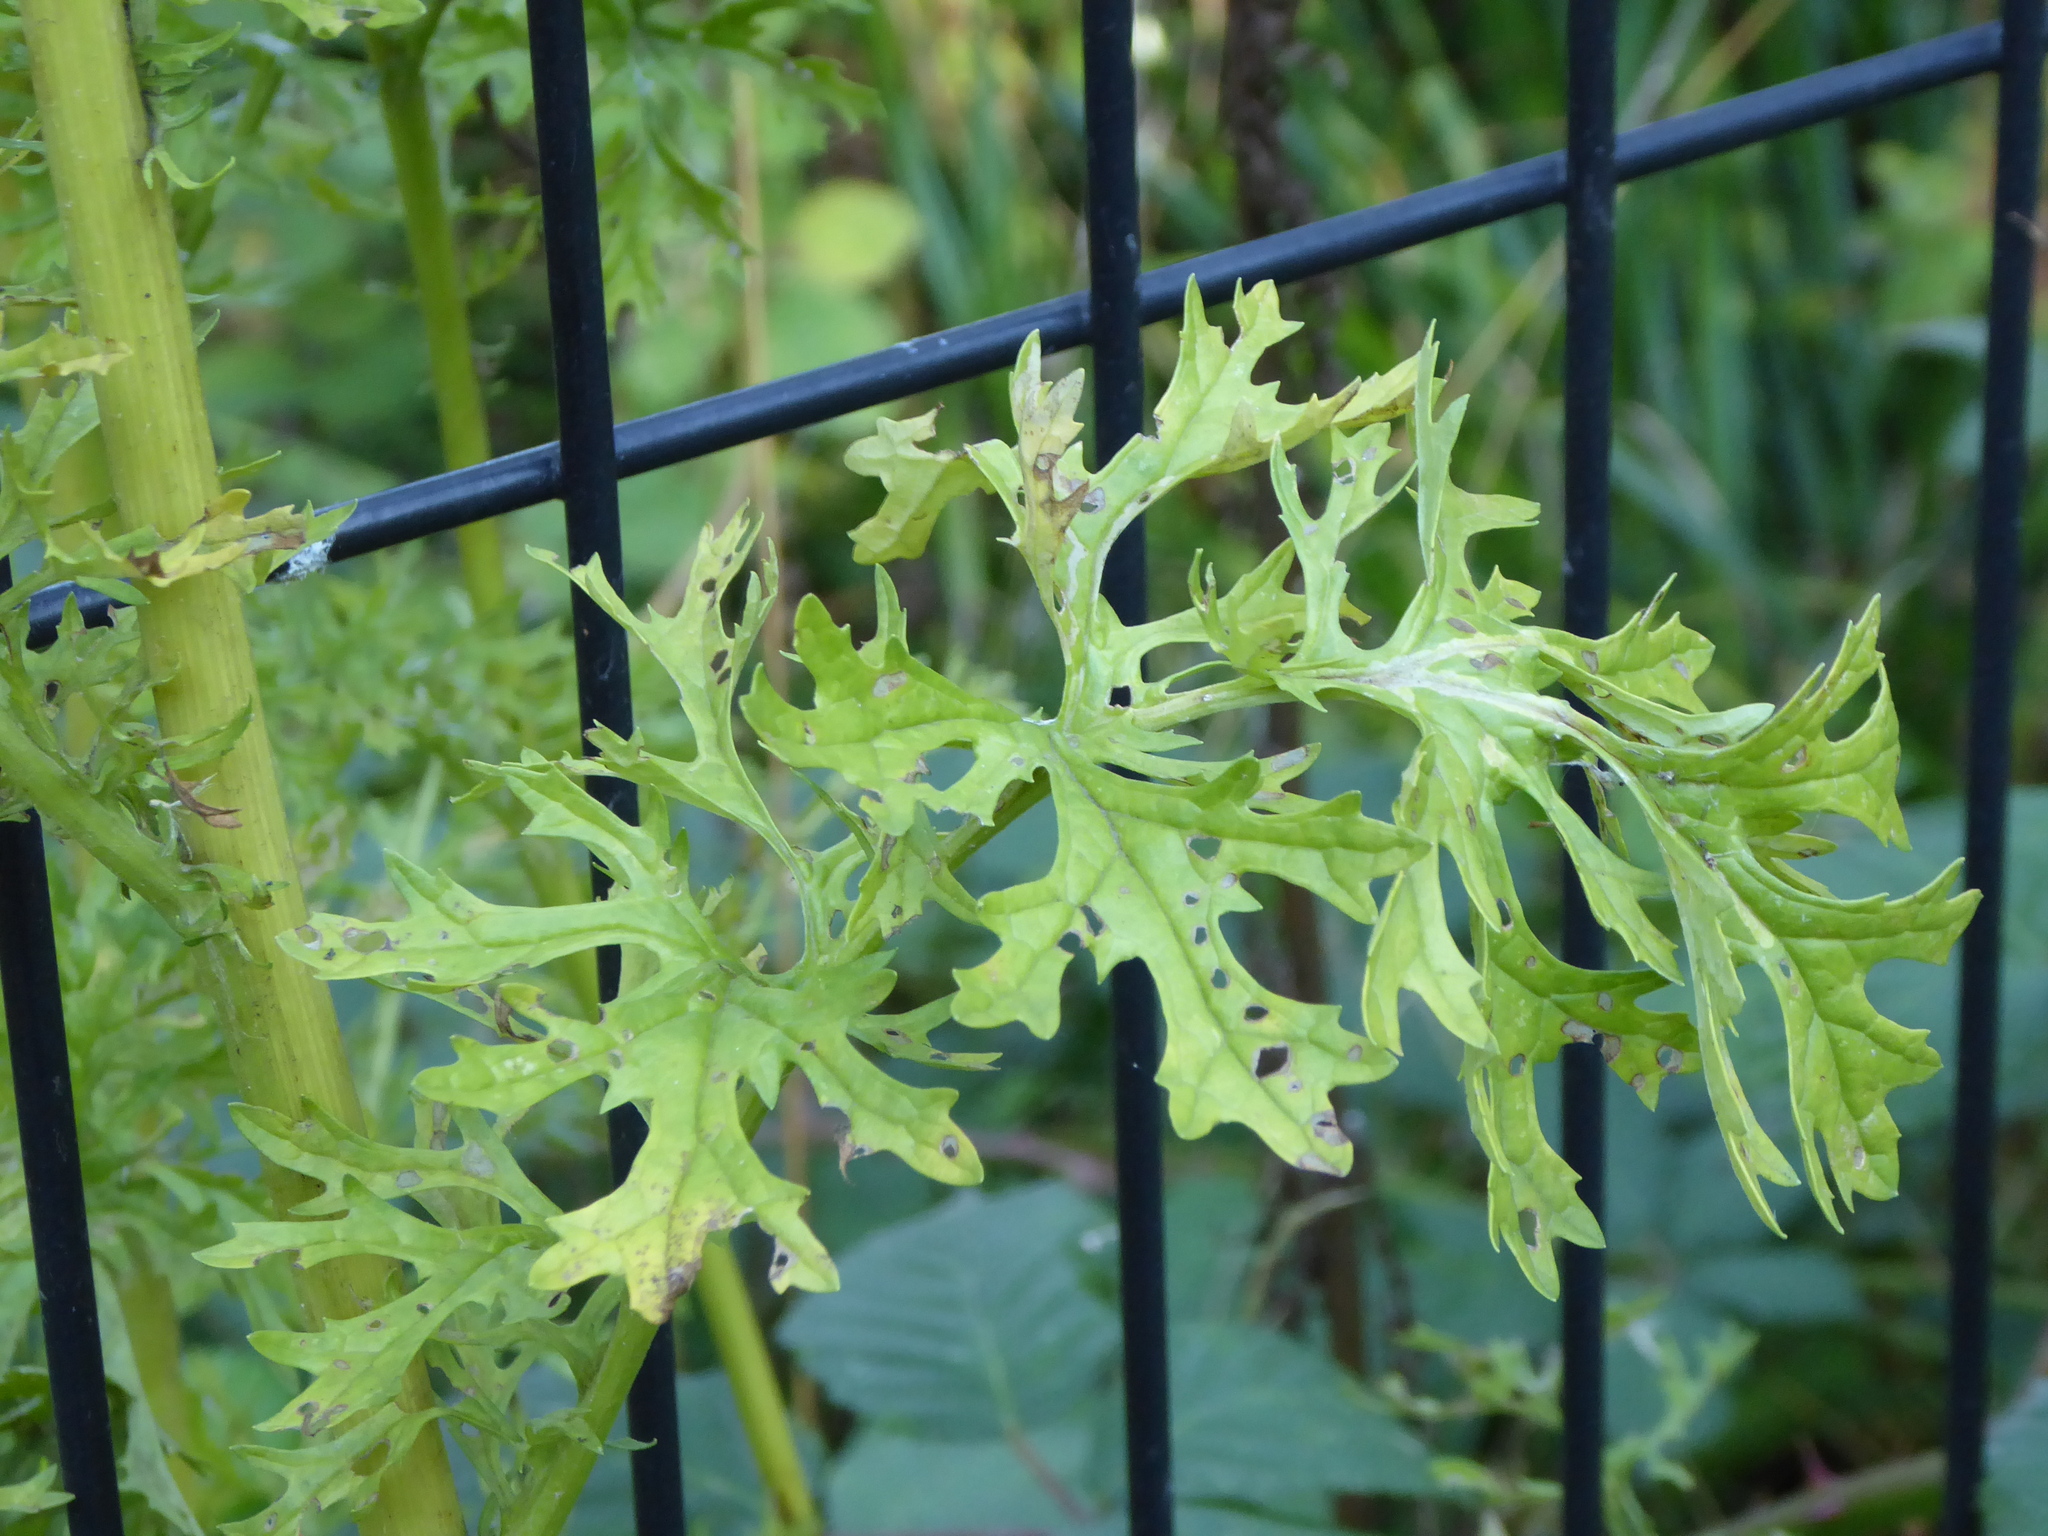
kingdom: Plantae
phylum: Tracheophyta
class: Magnoliopsida
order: Asterales
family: Asteraceae
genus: Jacobaea
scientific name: Jacobaea vulgaris
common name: Stinking willie
